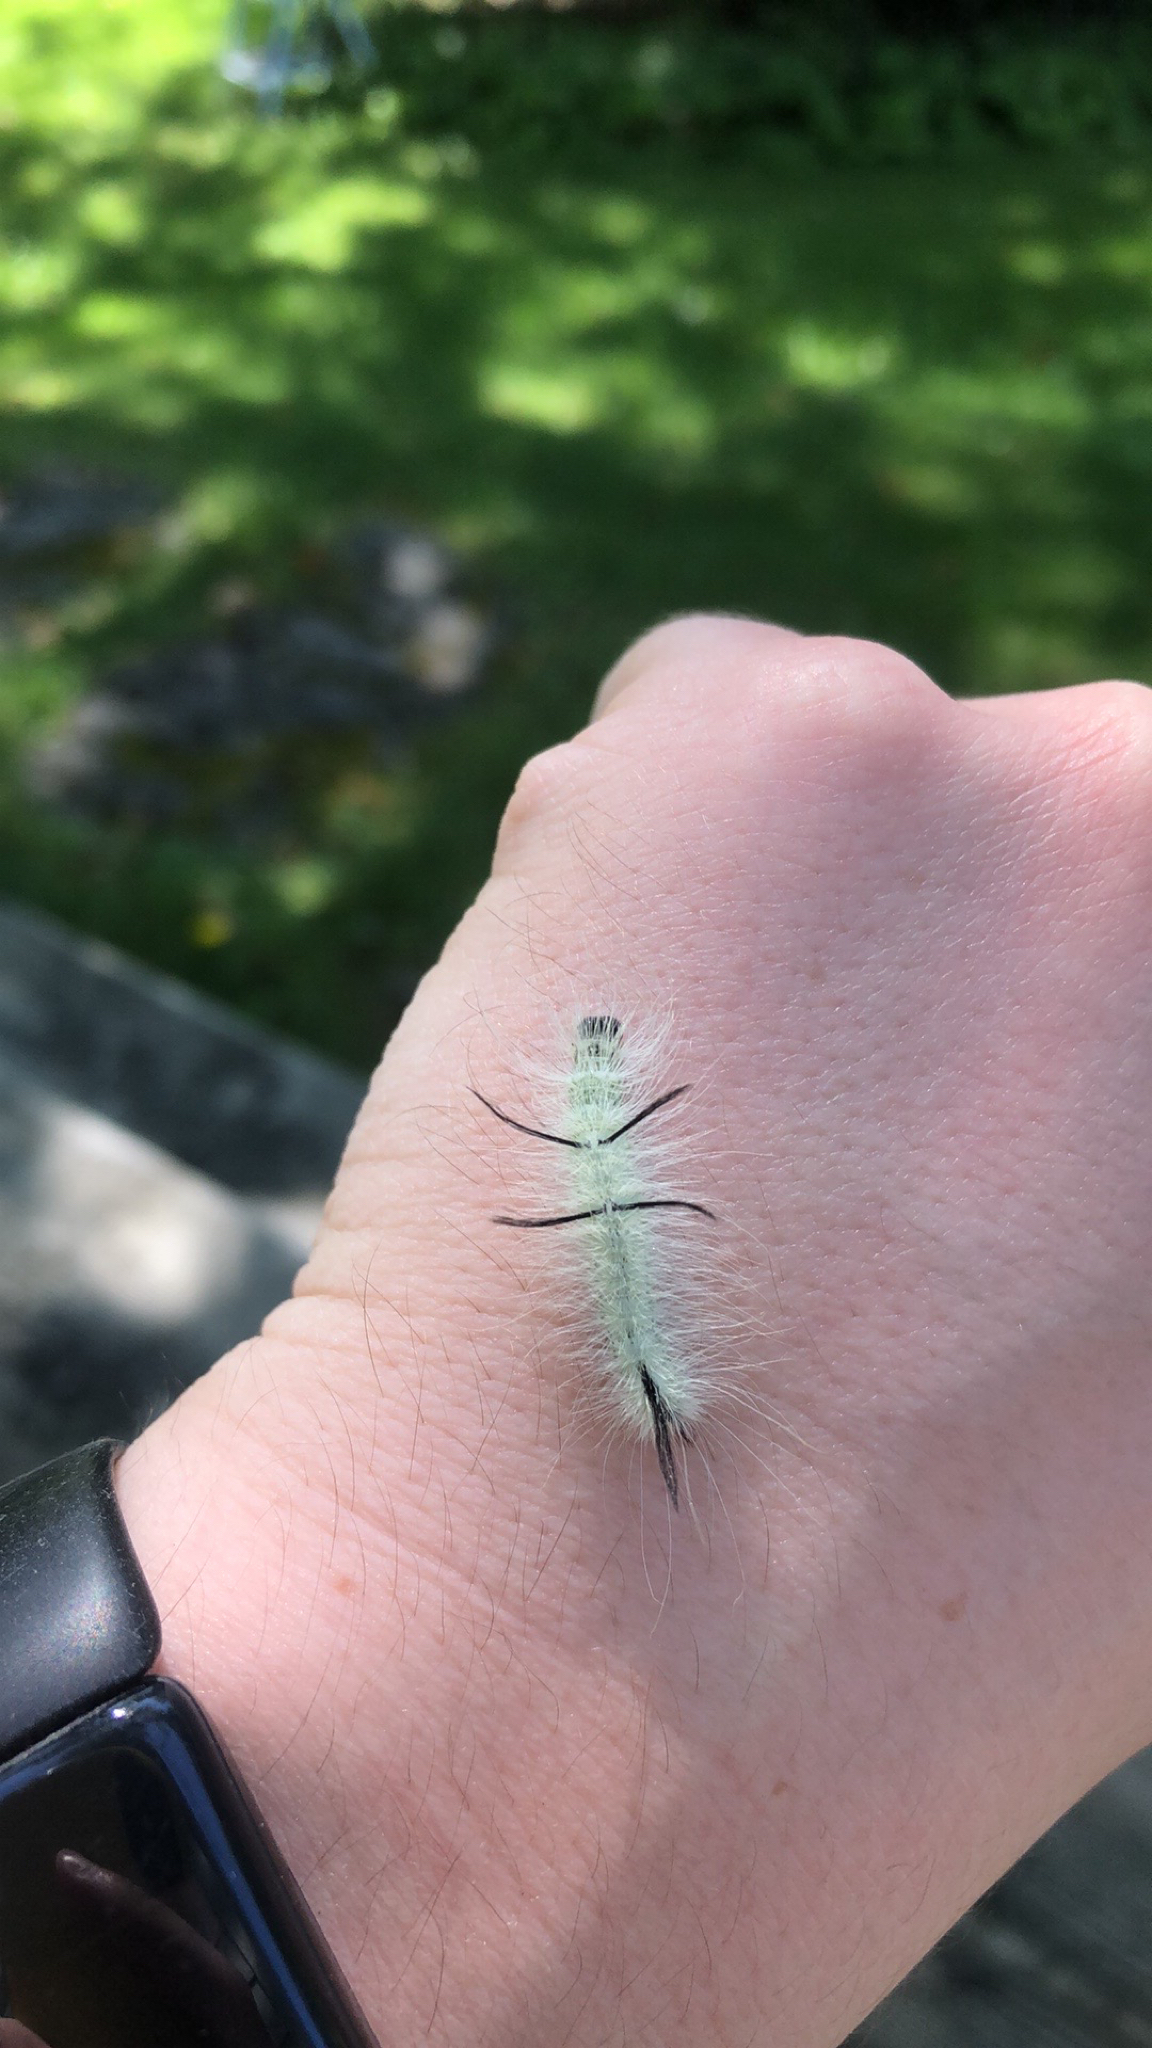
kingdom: Animalia
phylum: Arthropoda
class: Insecta
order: Lepidoptera
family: Noctuidae
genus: Acronicta
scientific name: Acronicta americana
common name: American dagger
